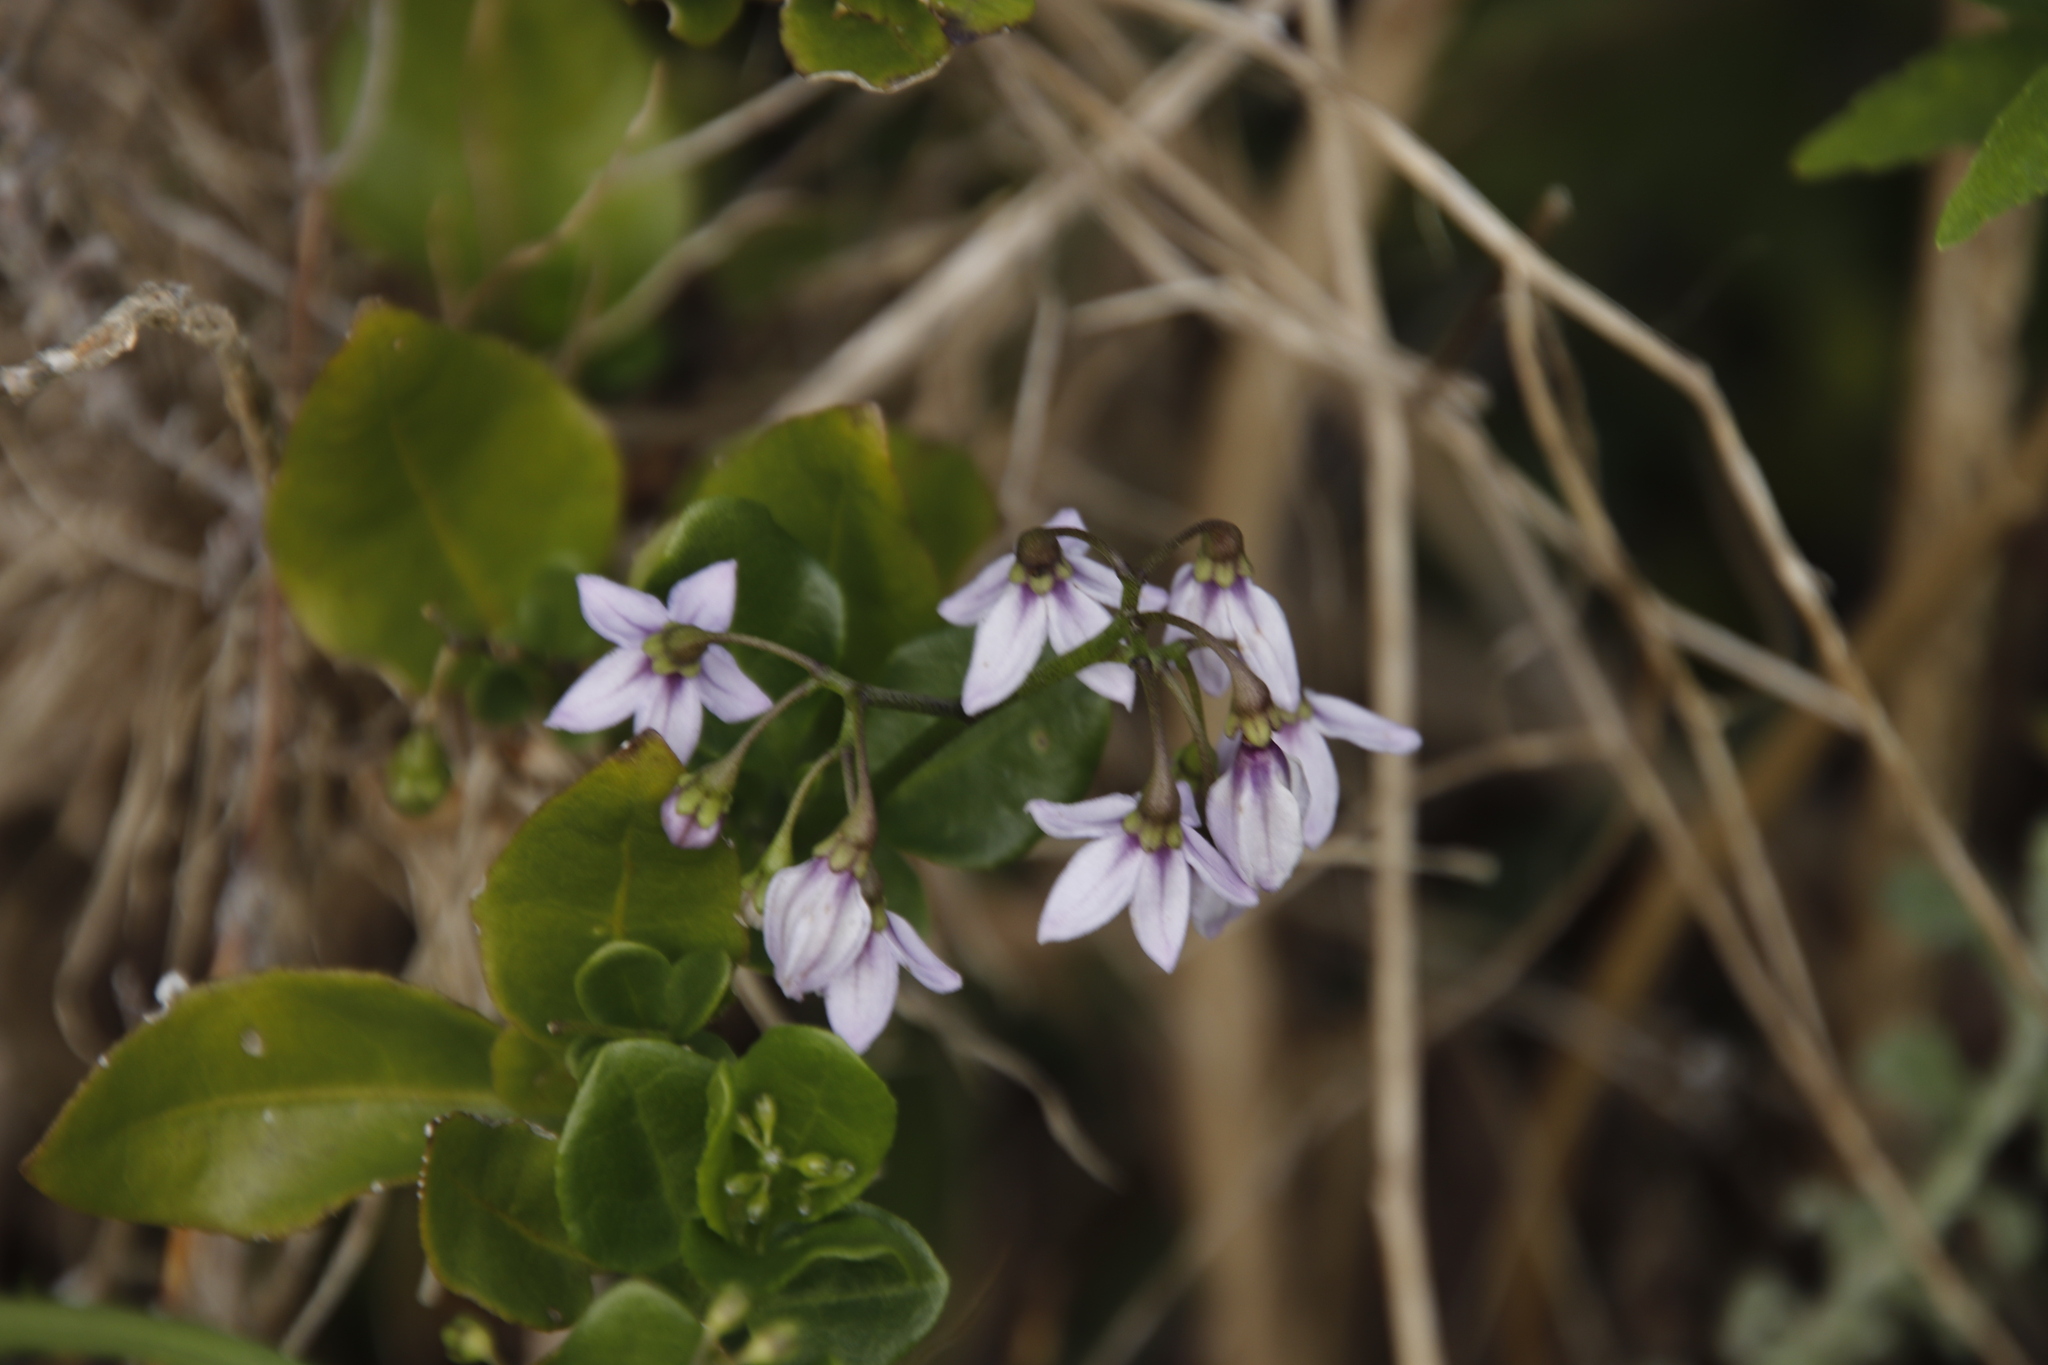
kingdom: Plantae
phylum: Tracheophyta
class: Magnoliopsida
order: Solanales
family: Solanaceae
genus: Solanum
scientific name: Solanum africanum
